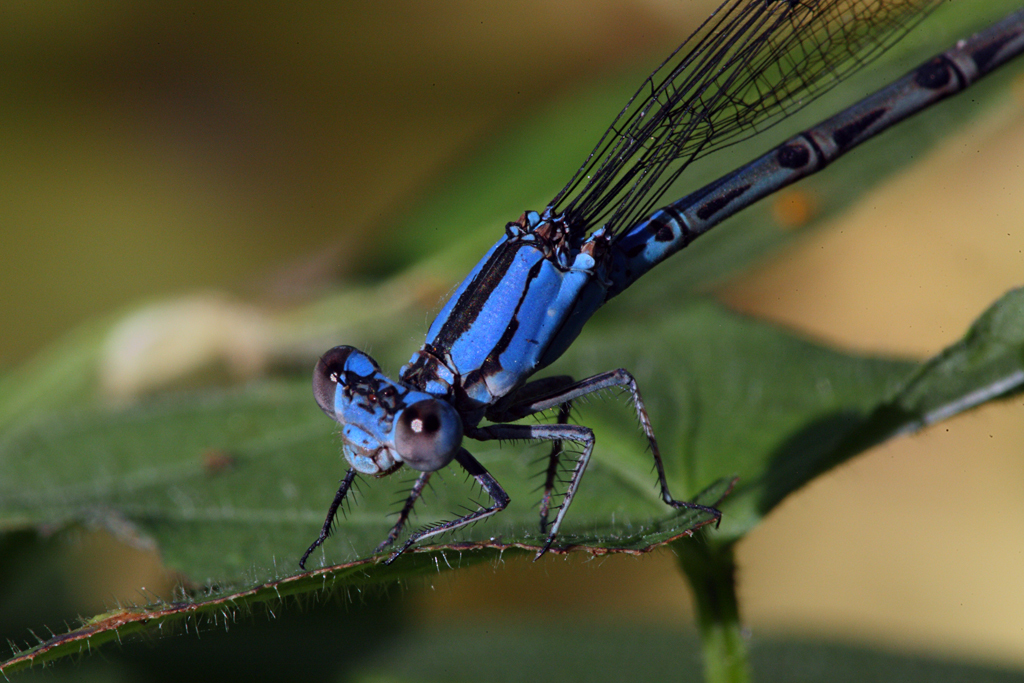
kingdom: Animalia
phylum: Arthropoda
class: Insecta
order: Odonata
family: Coenagrionidae
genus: Argia
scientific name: Argia funebris
